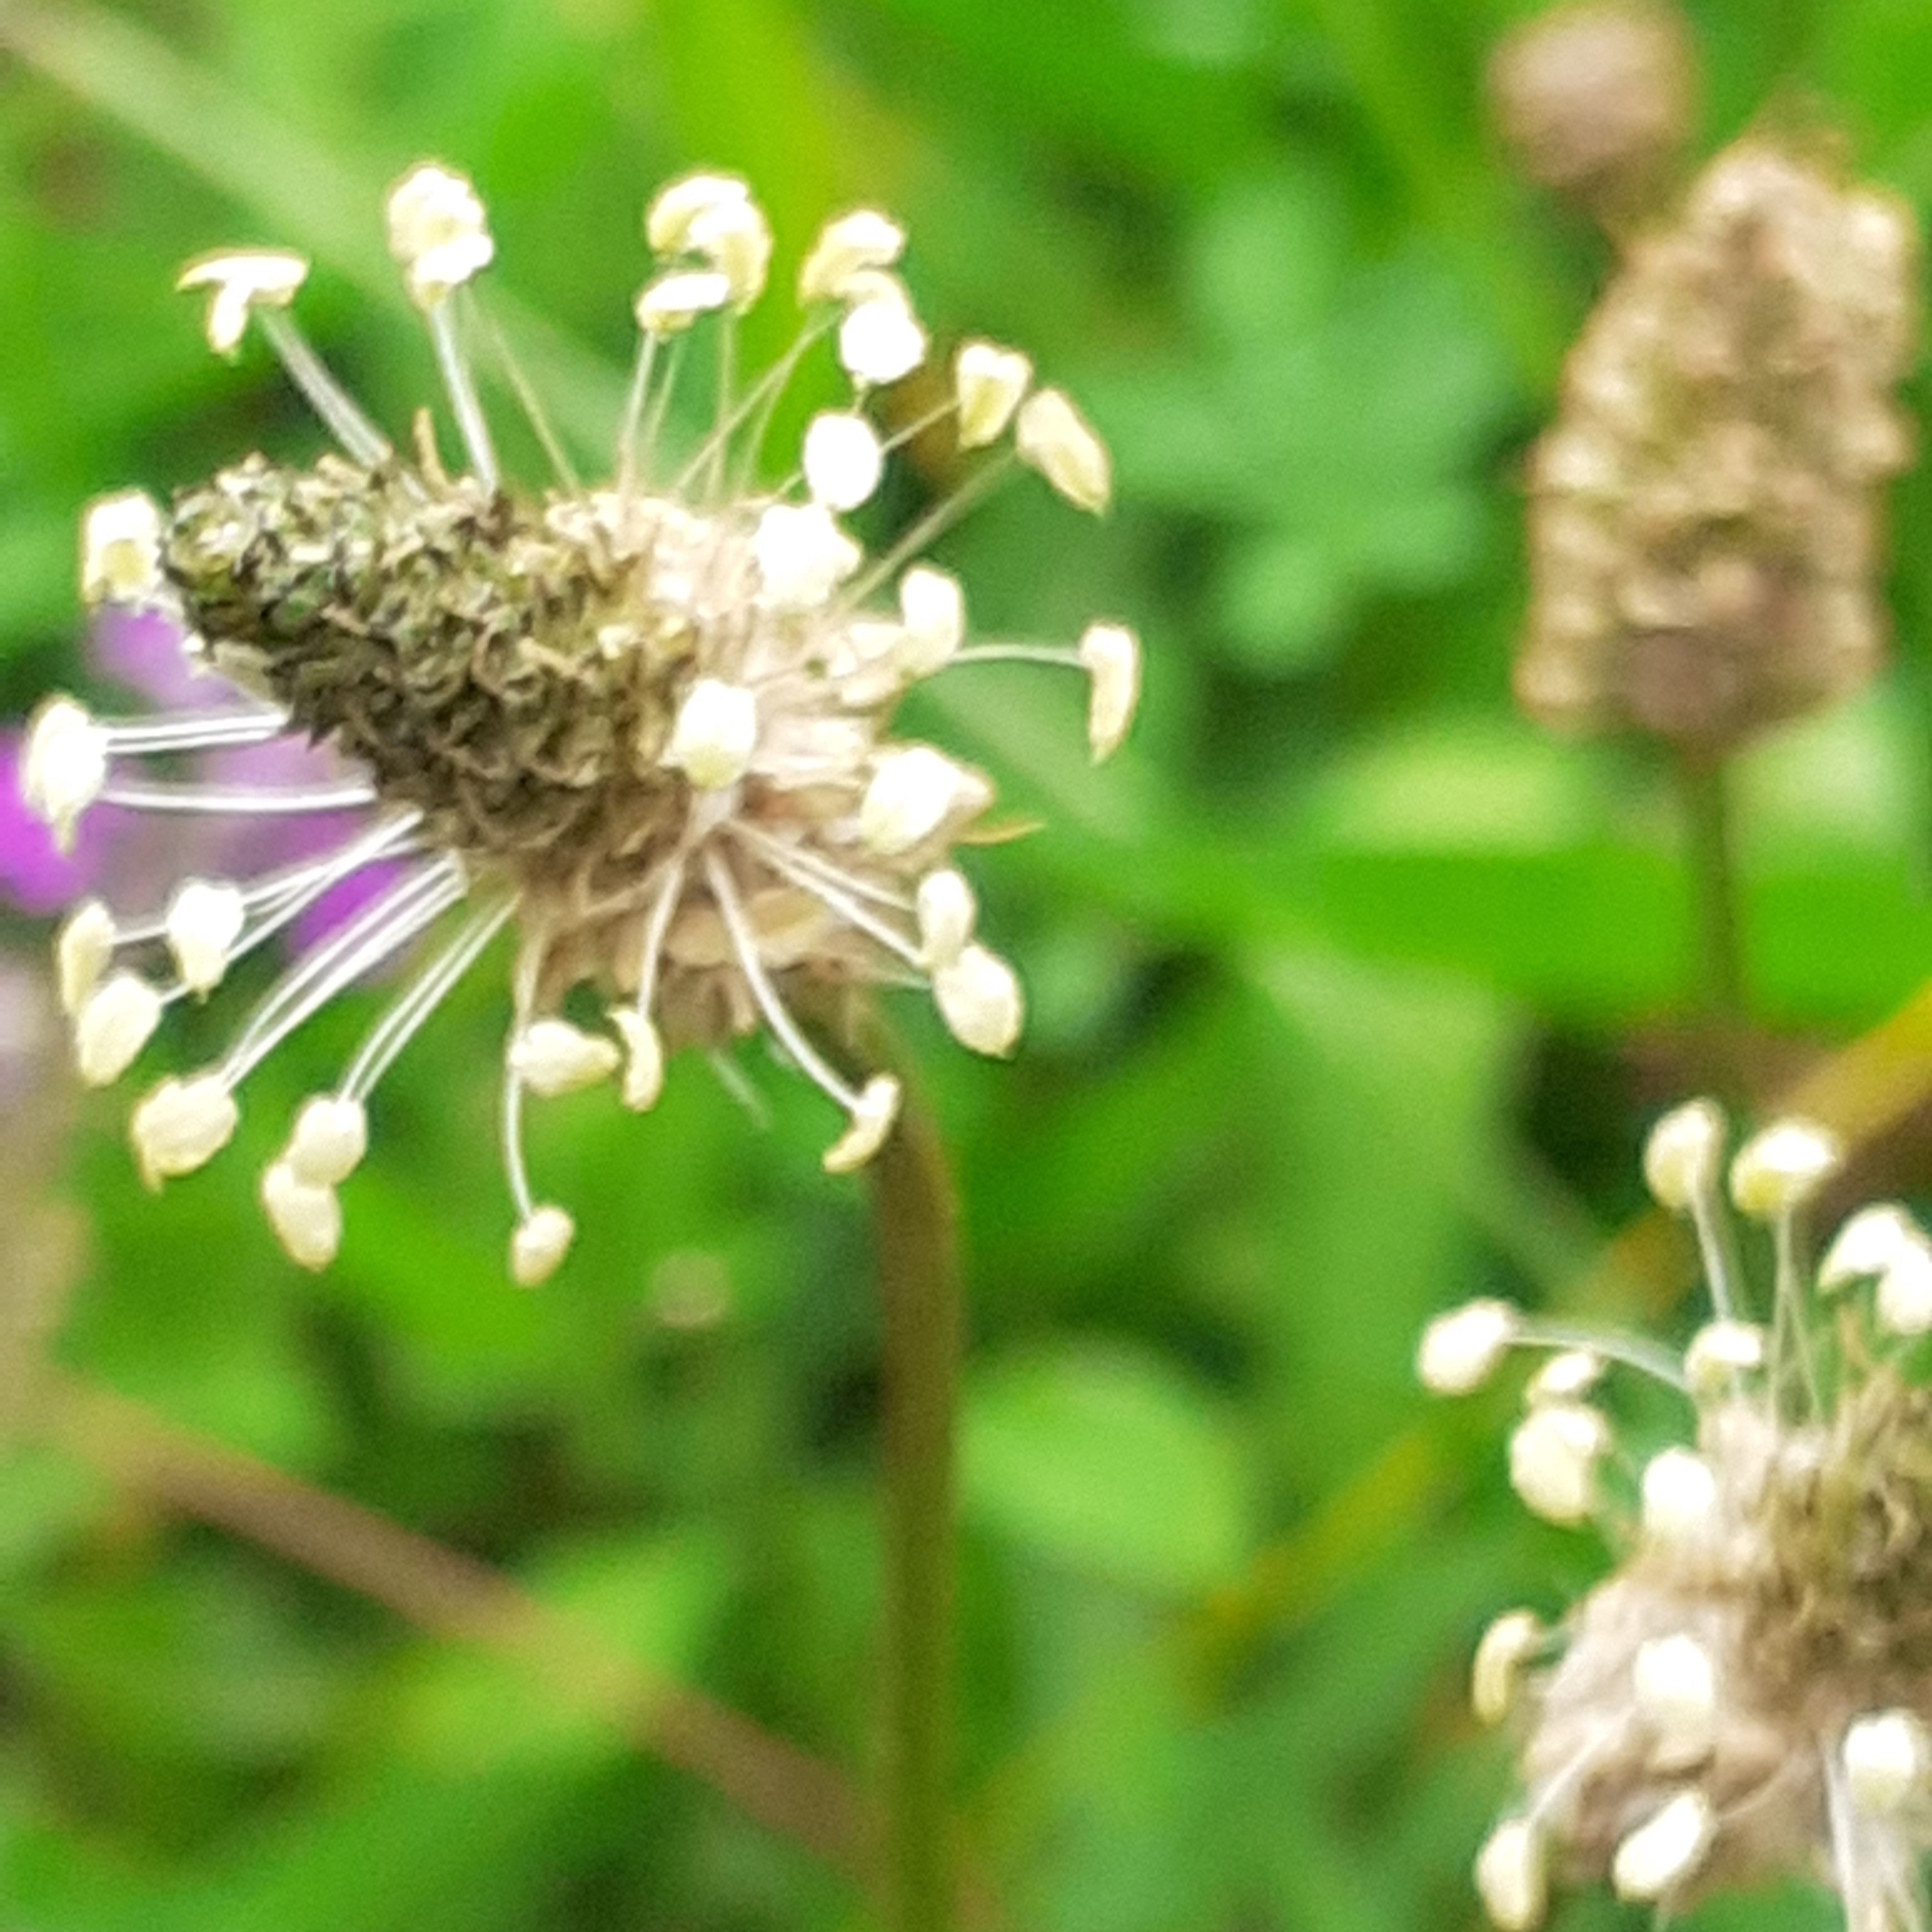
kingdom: Plantae
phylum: Tracheophyta
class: Magnoliopsida
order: Lamiales
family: Plantaginaceae
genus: Plantago
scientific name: Plantago lanceolata
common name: Ribwort plantain
